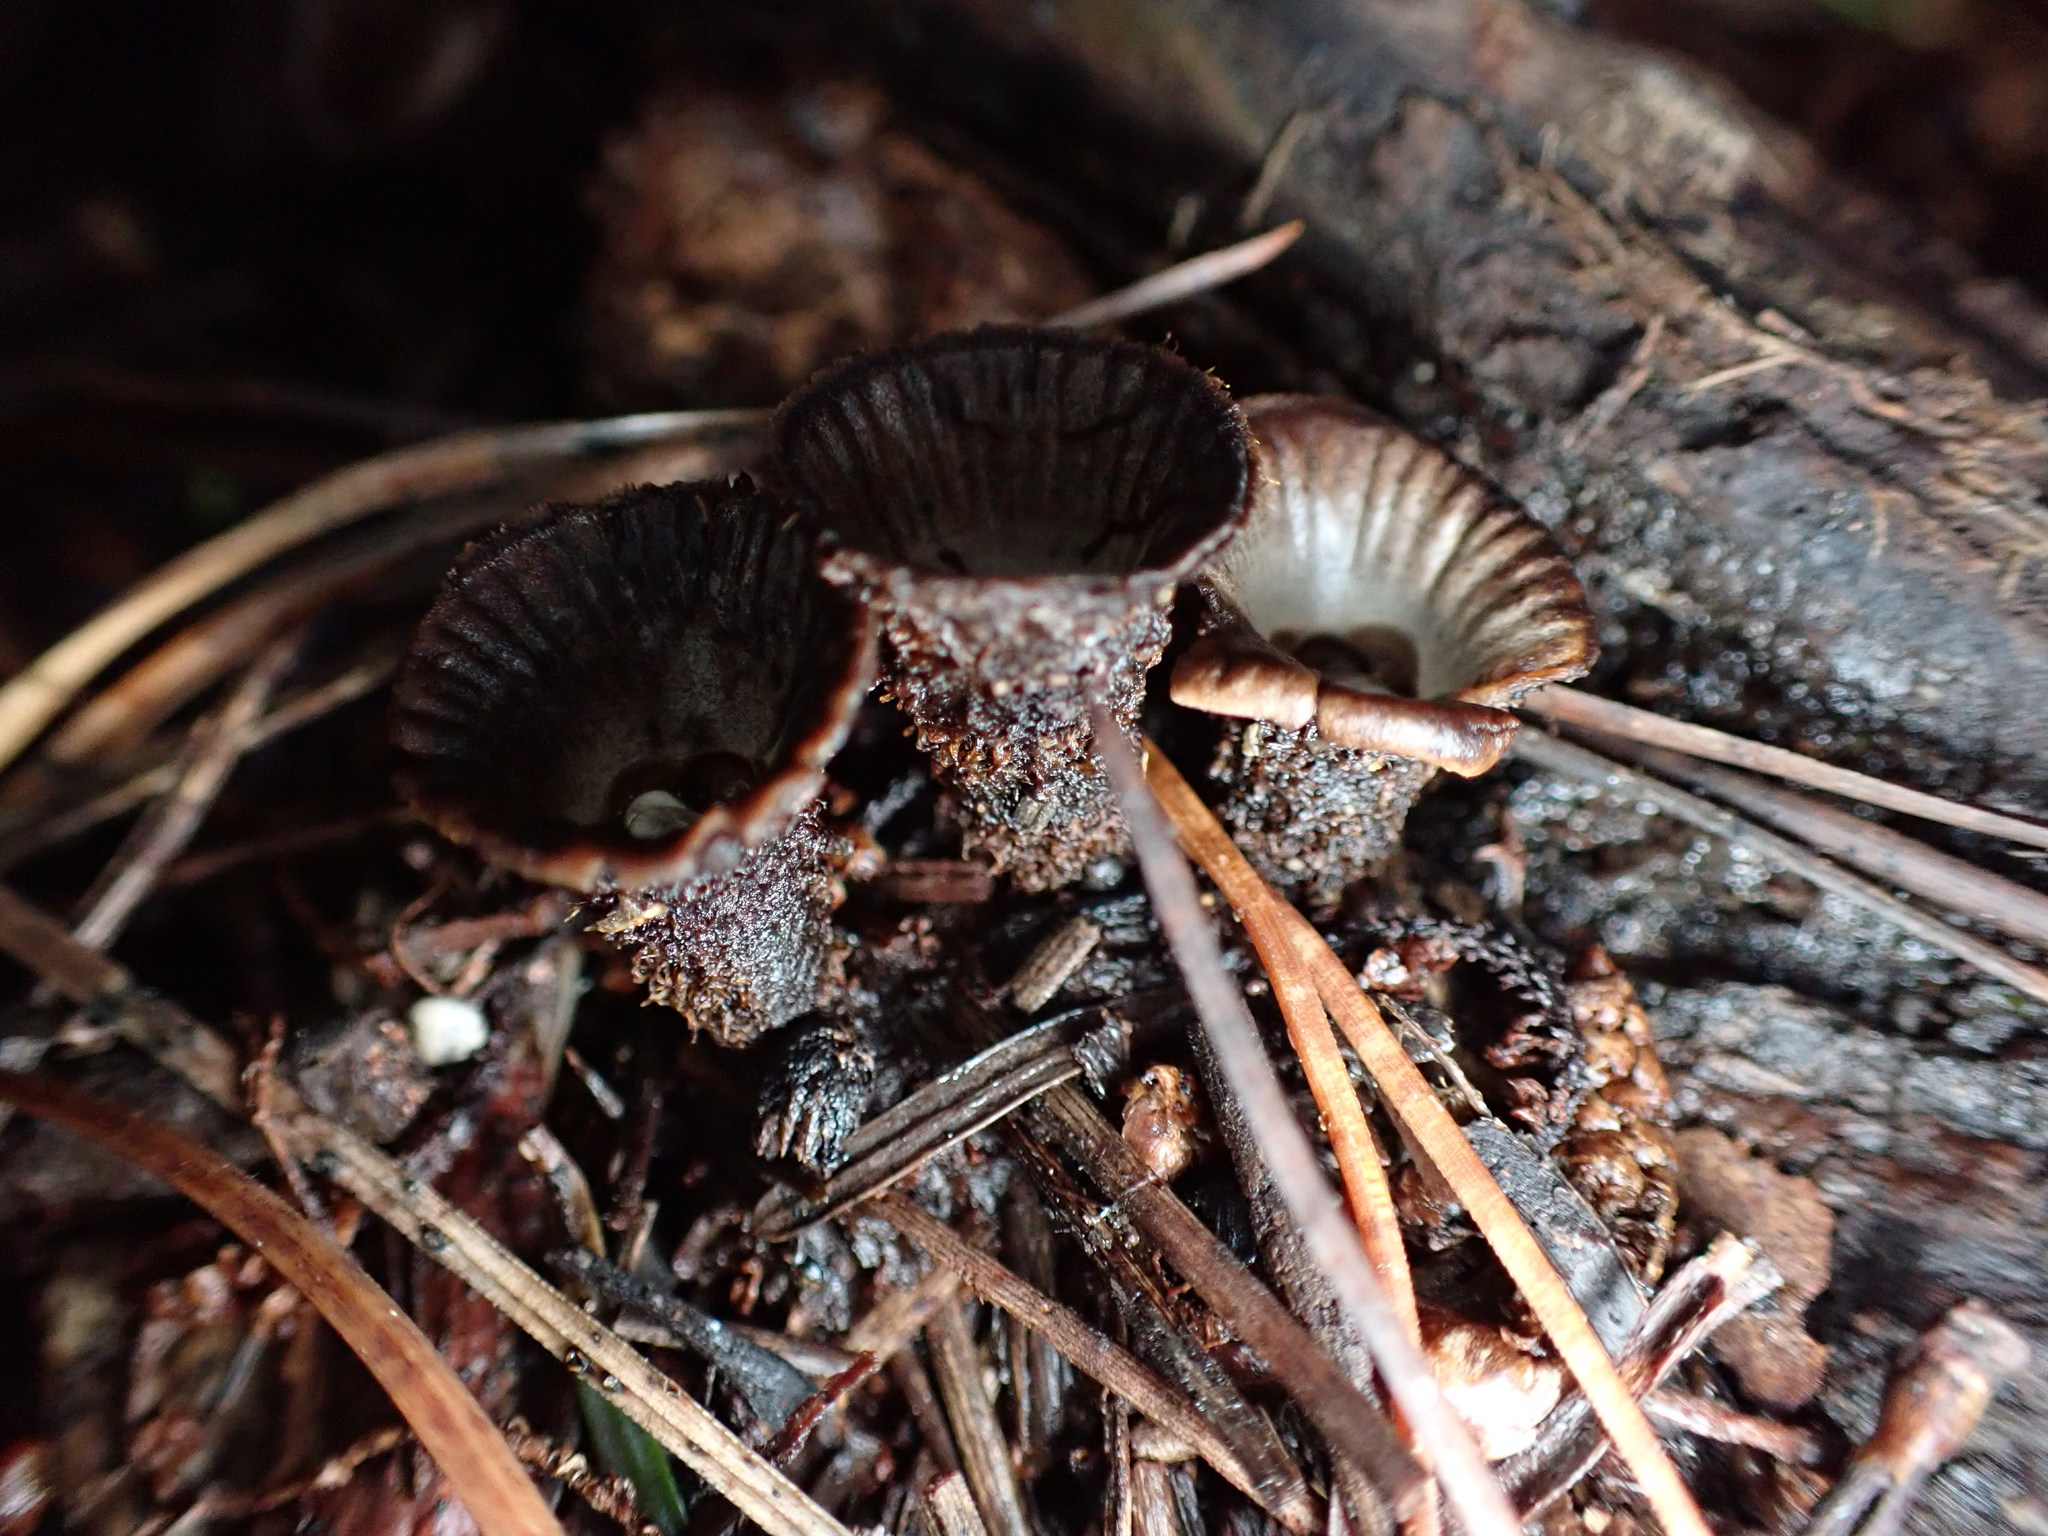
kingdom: Fungi
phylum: Basidiomycota
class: Agaricomycetes
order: Agaricales
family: Agaricaceae
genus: Cyathus
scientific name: Cyathus striatus
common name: Fluted bird's nest
